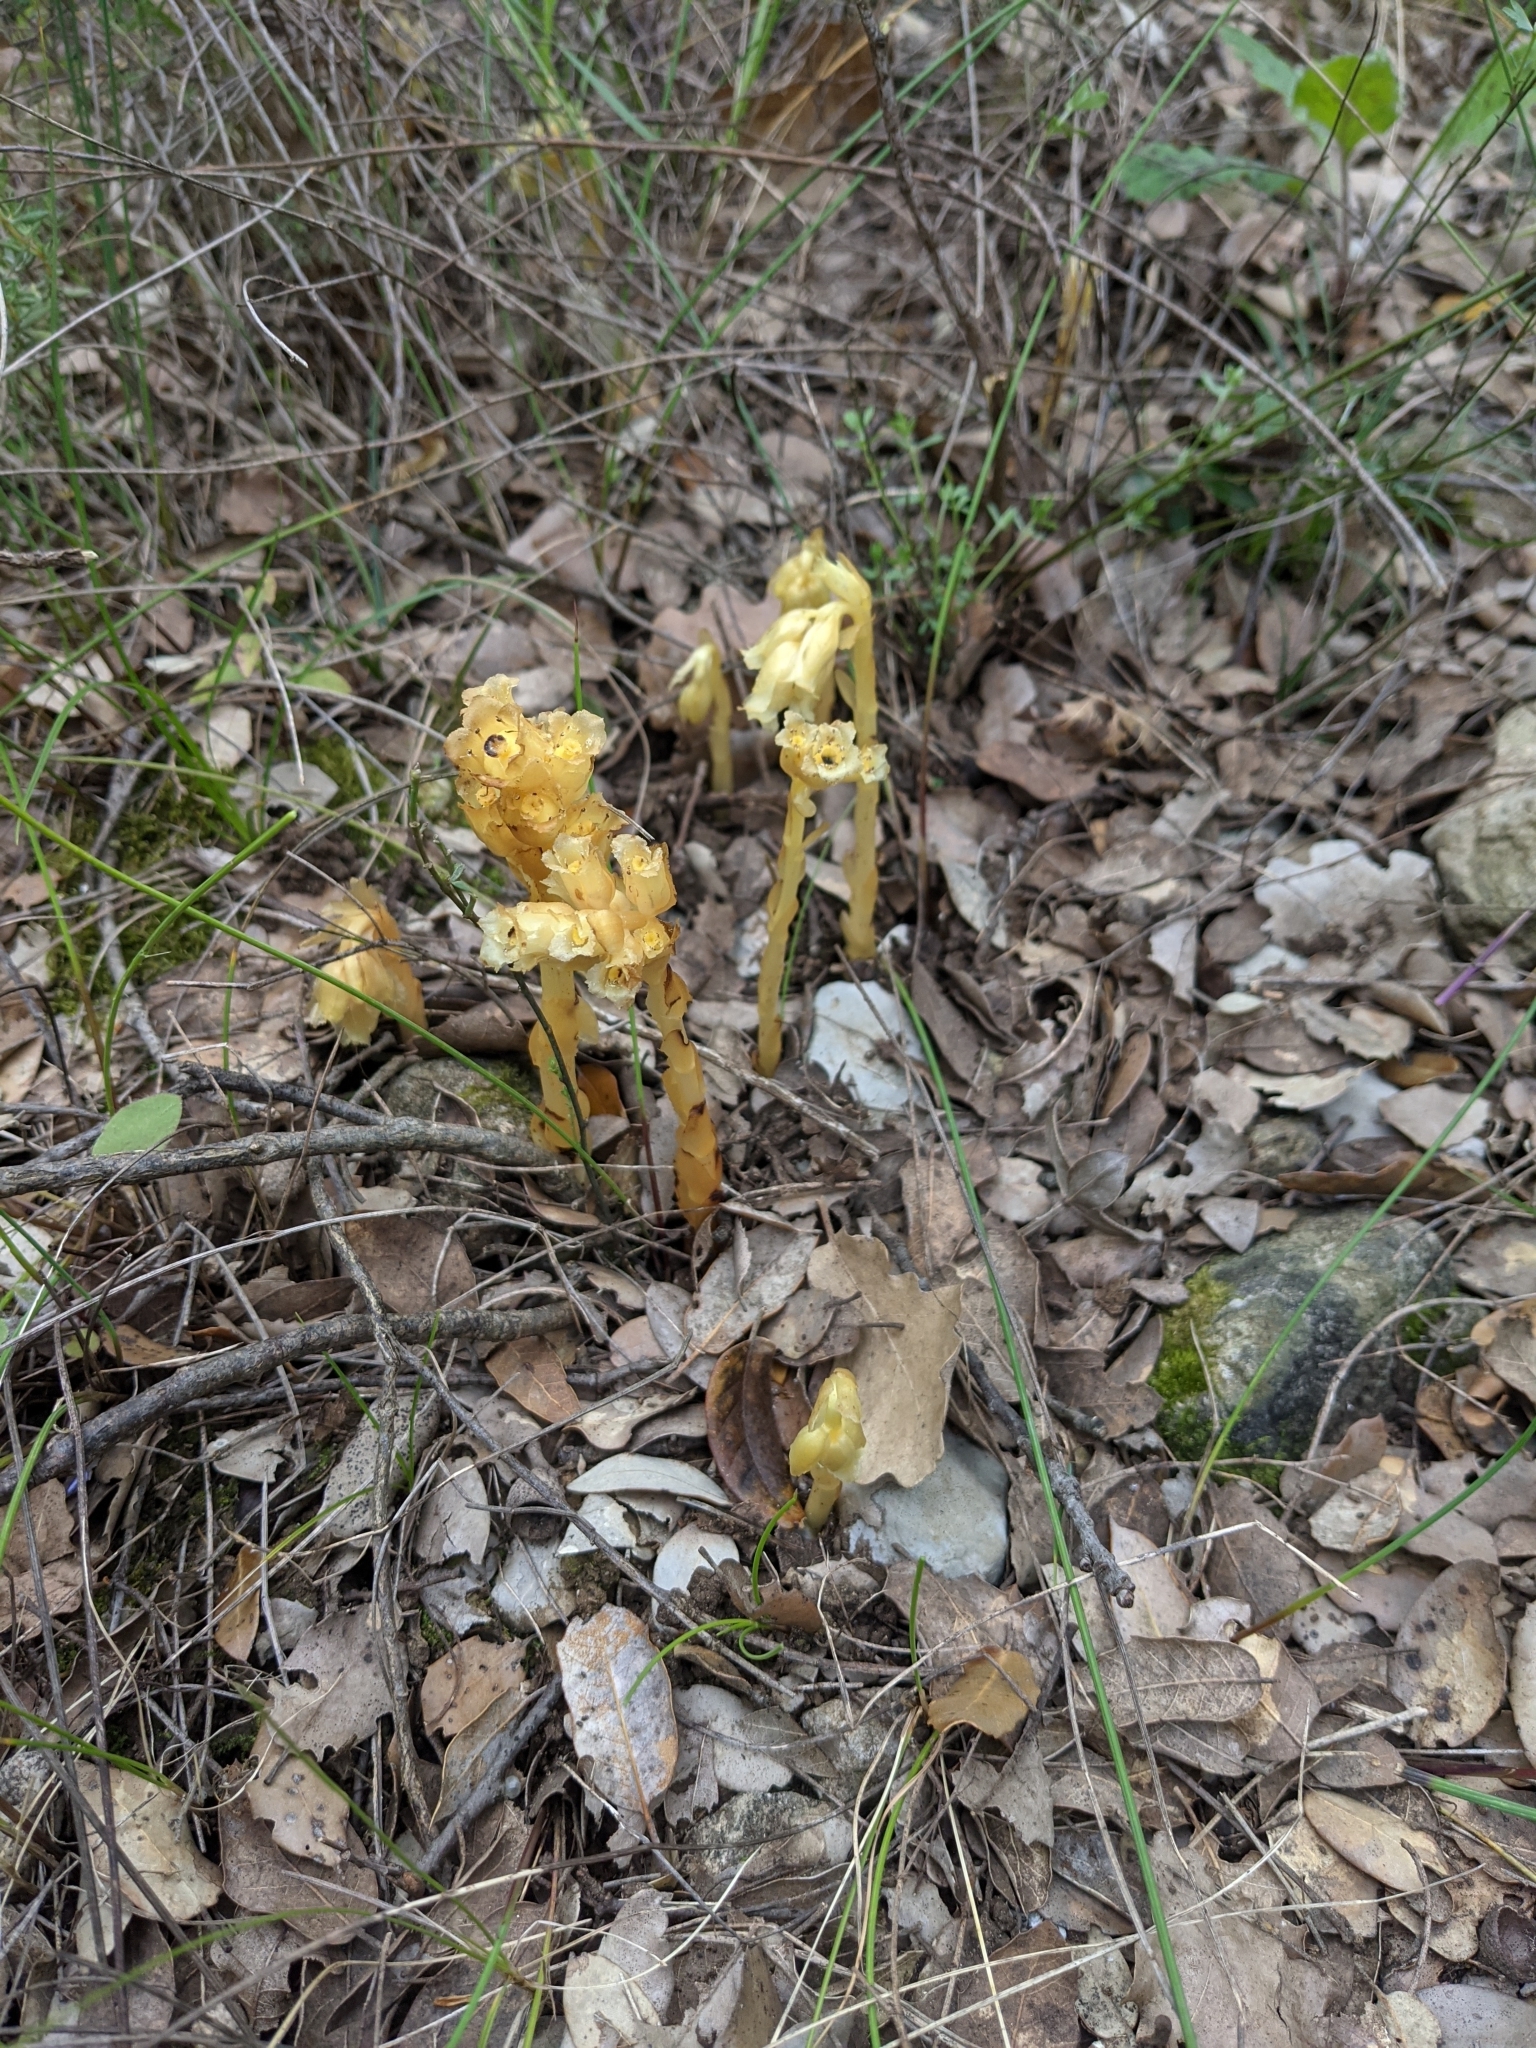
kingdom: Plantae
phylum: Tracheophyta
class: Magnoliopsida
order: Ericales
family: Ericaceae
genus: Hypopitys
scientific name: Hypopitys monotropa
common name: Yellow bird's-nest
